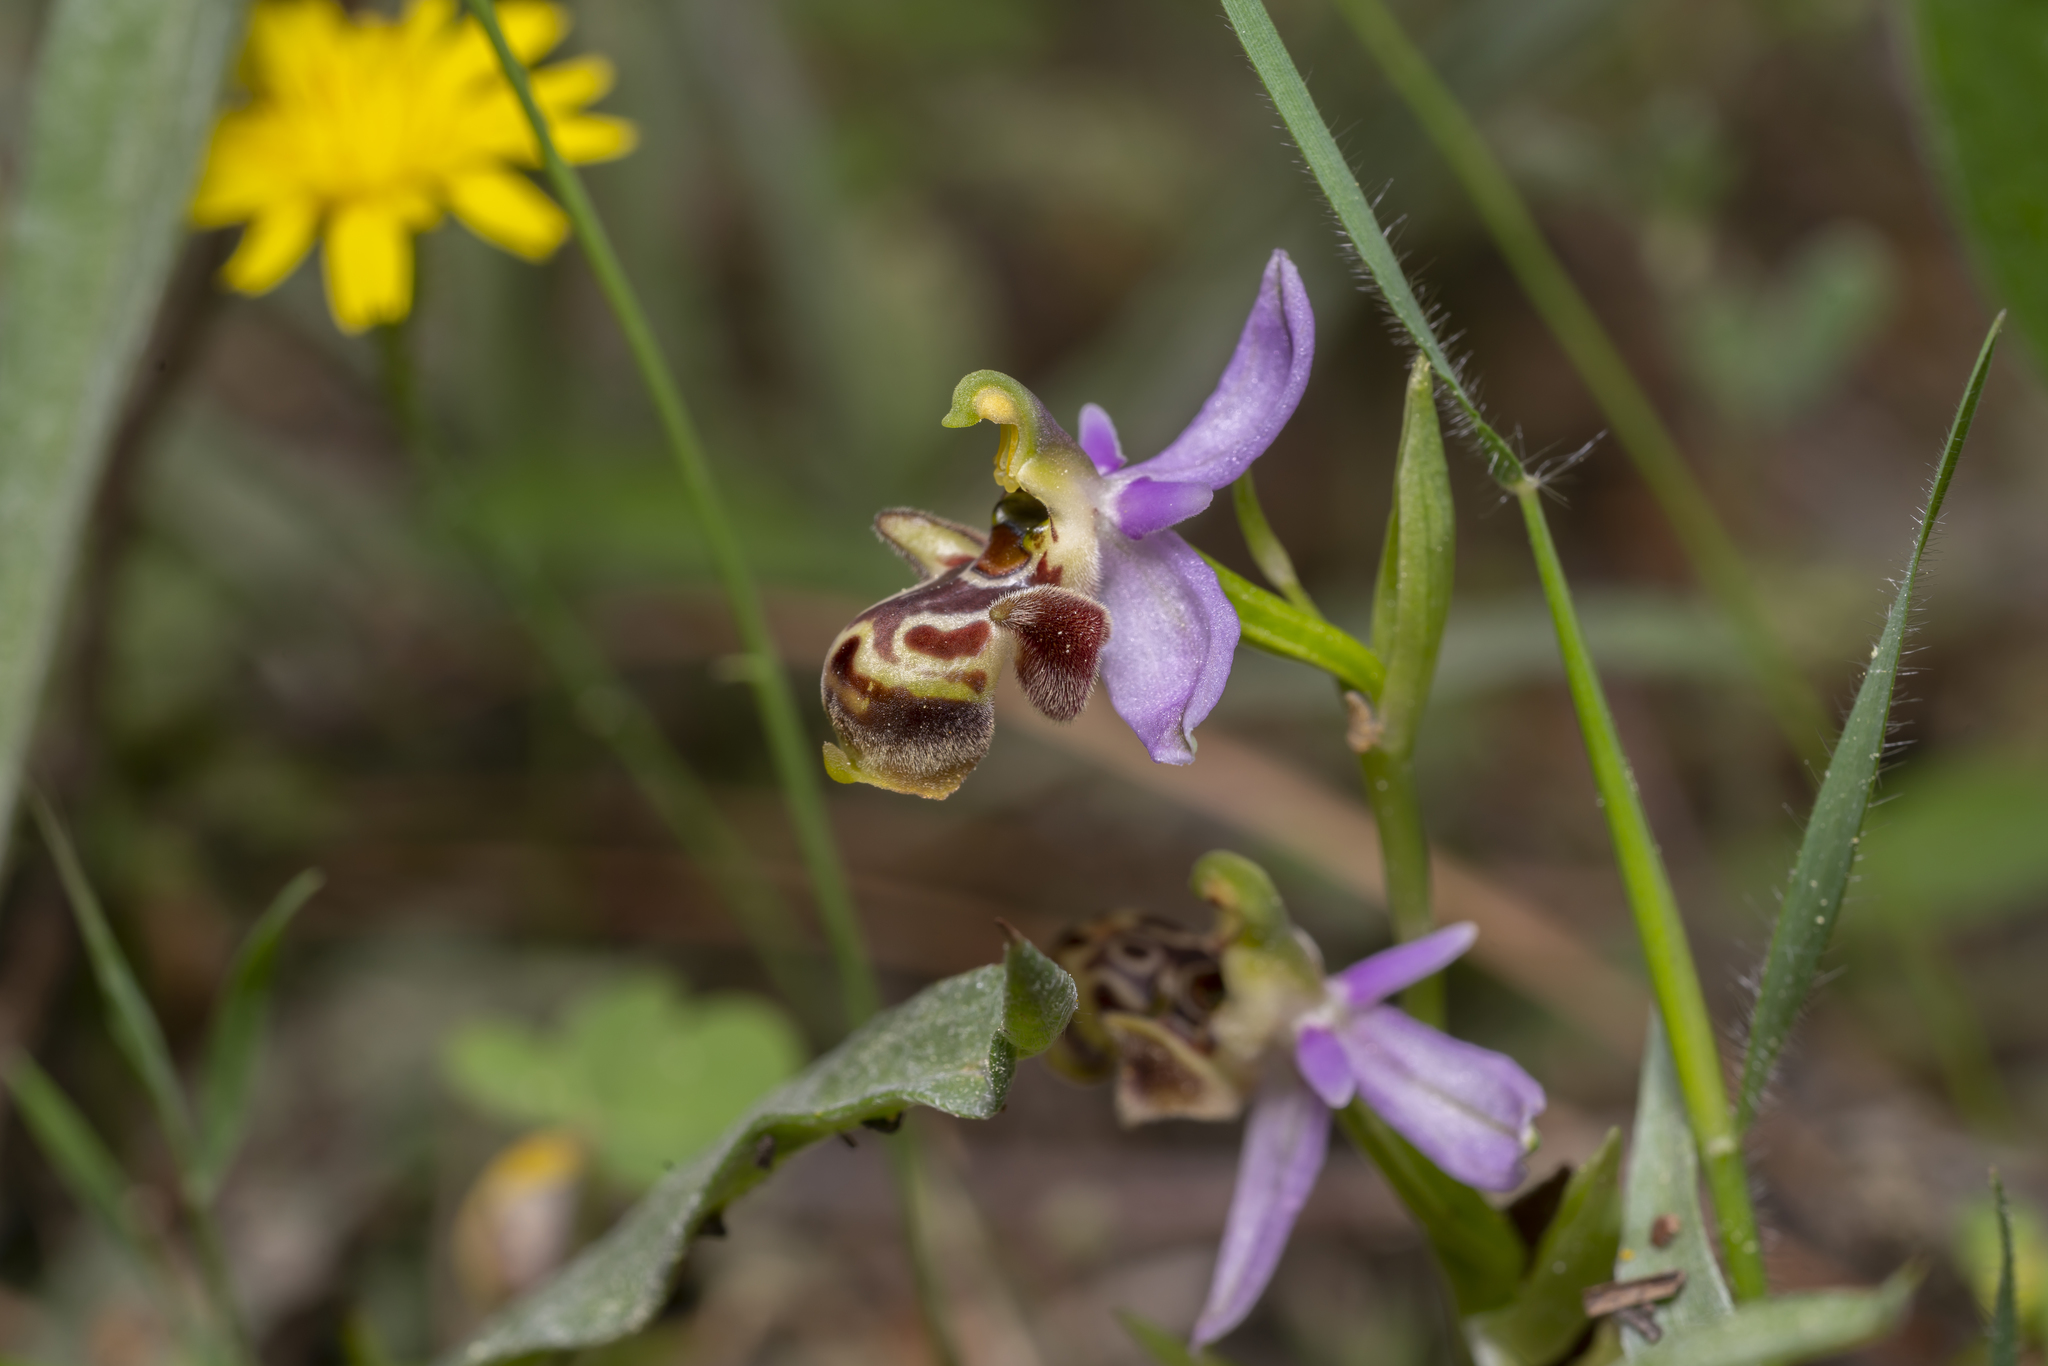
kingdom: Plantae
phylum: Tracheophyta
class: Liliopsida
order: Asparagales
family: Orchidaceae
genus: Ophrys
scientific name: Ophrys scolopax
